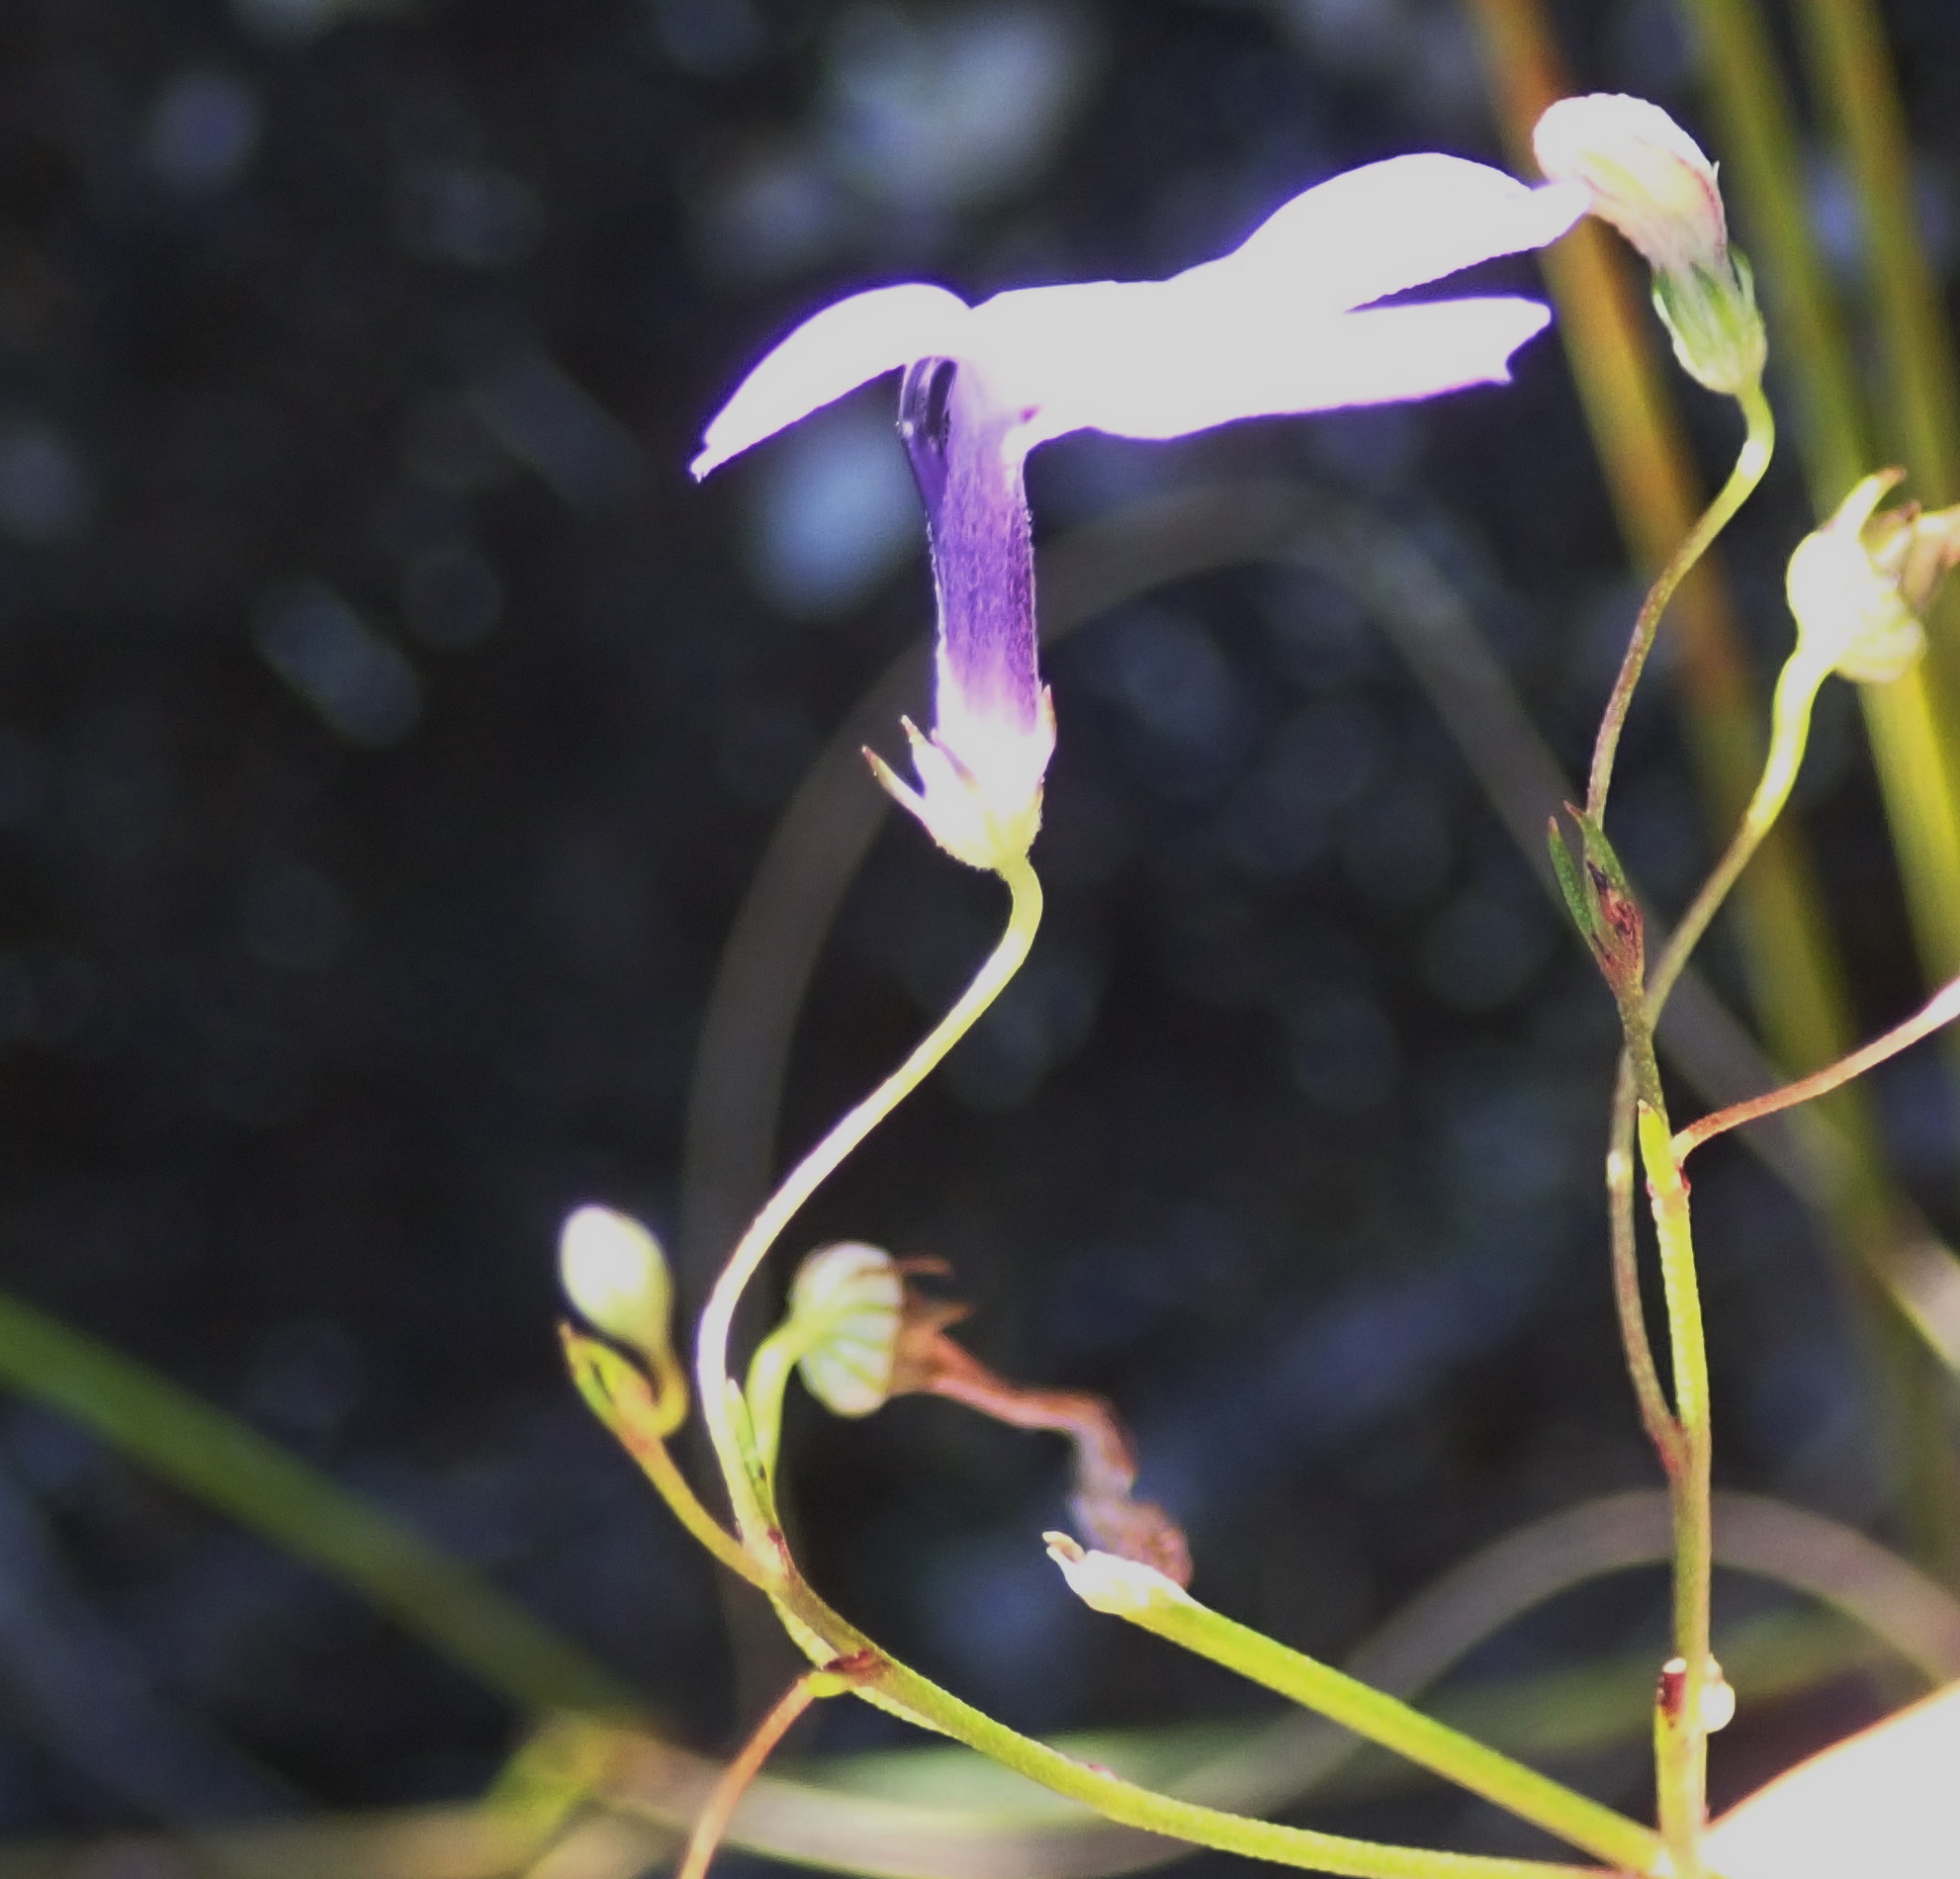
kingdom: Plantae
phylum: Tracheophyta
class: Magnoliopsida
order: Asterales
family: Campanulaceae
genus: Lobelia
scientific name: Lobelia setacea
